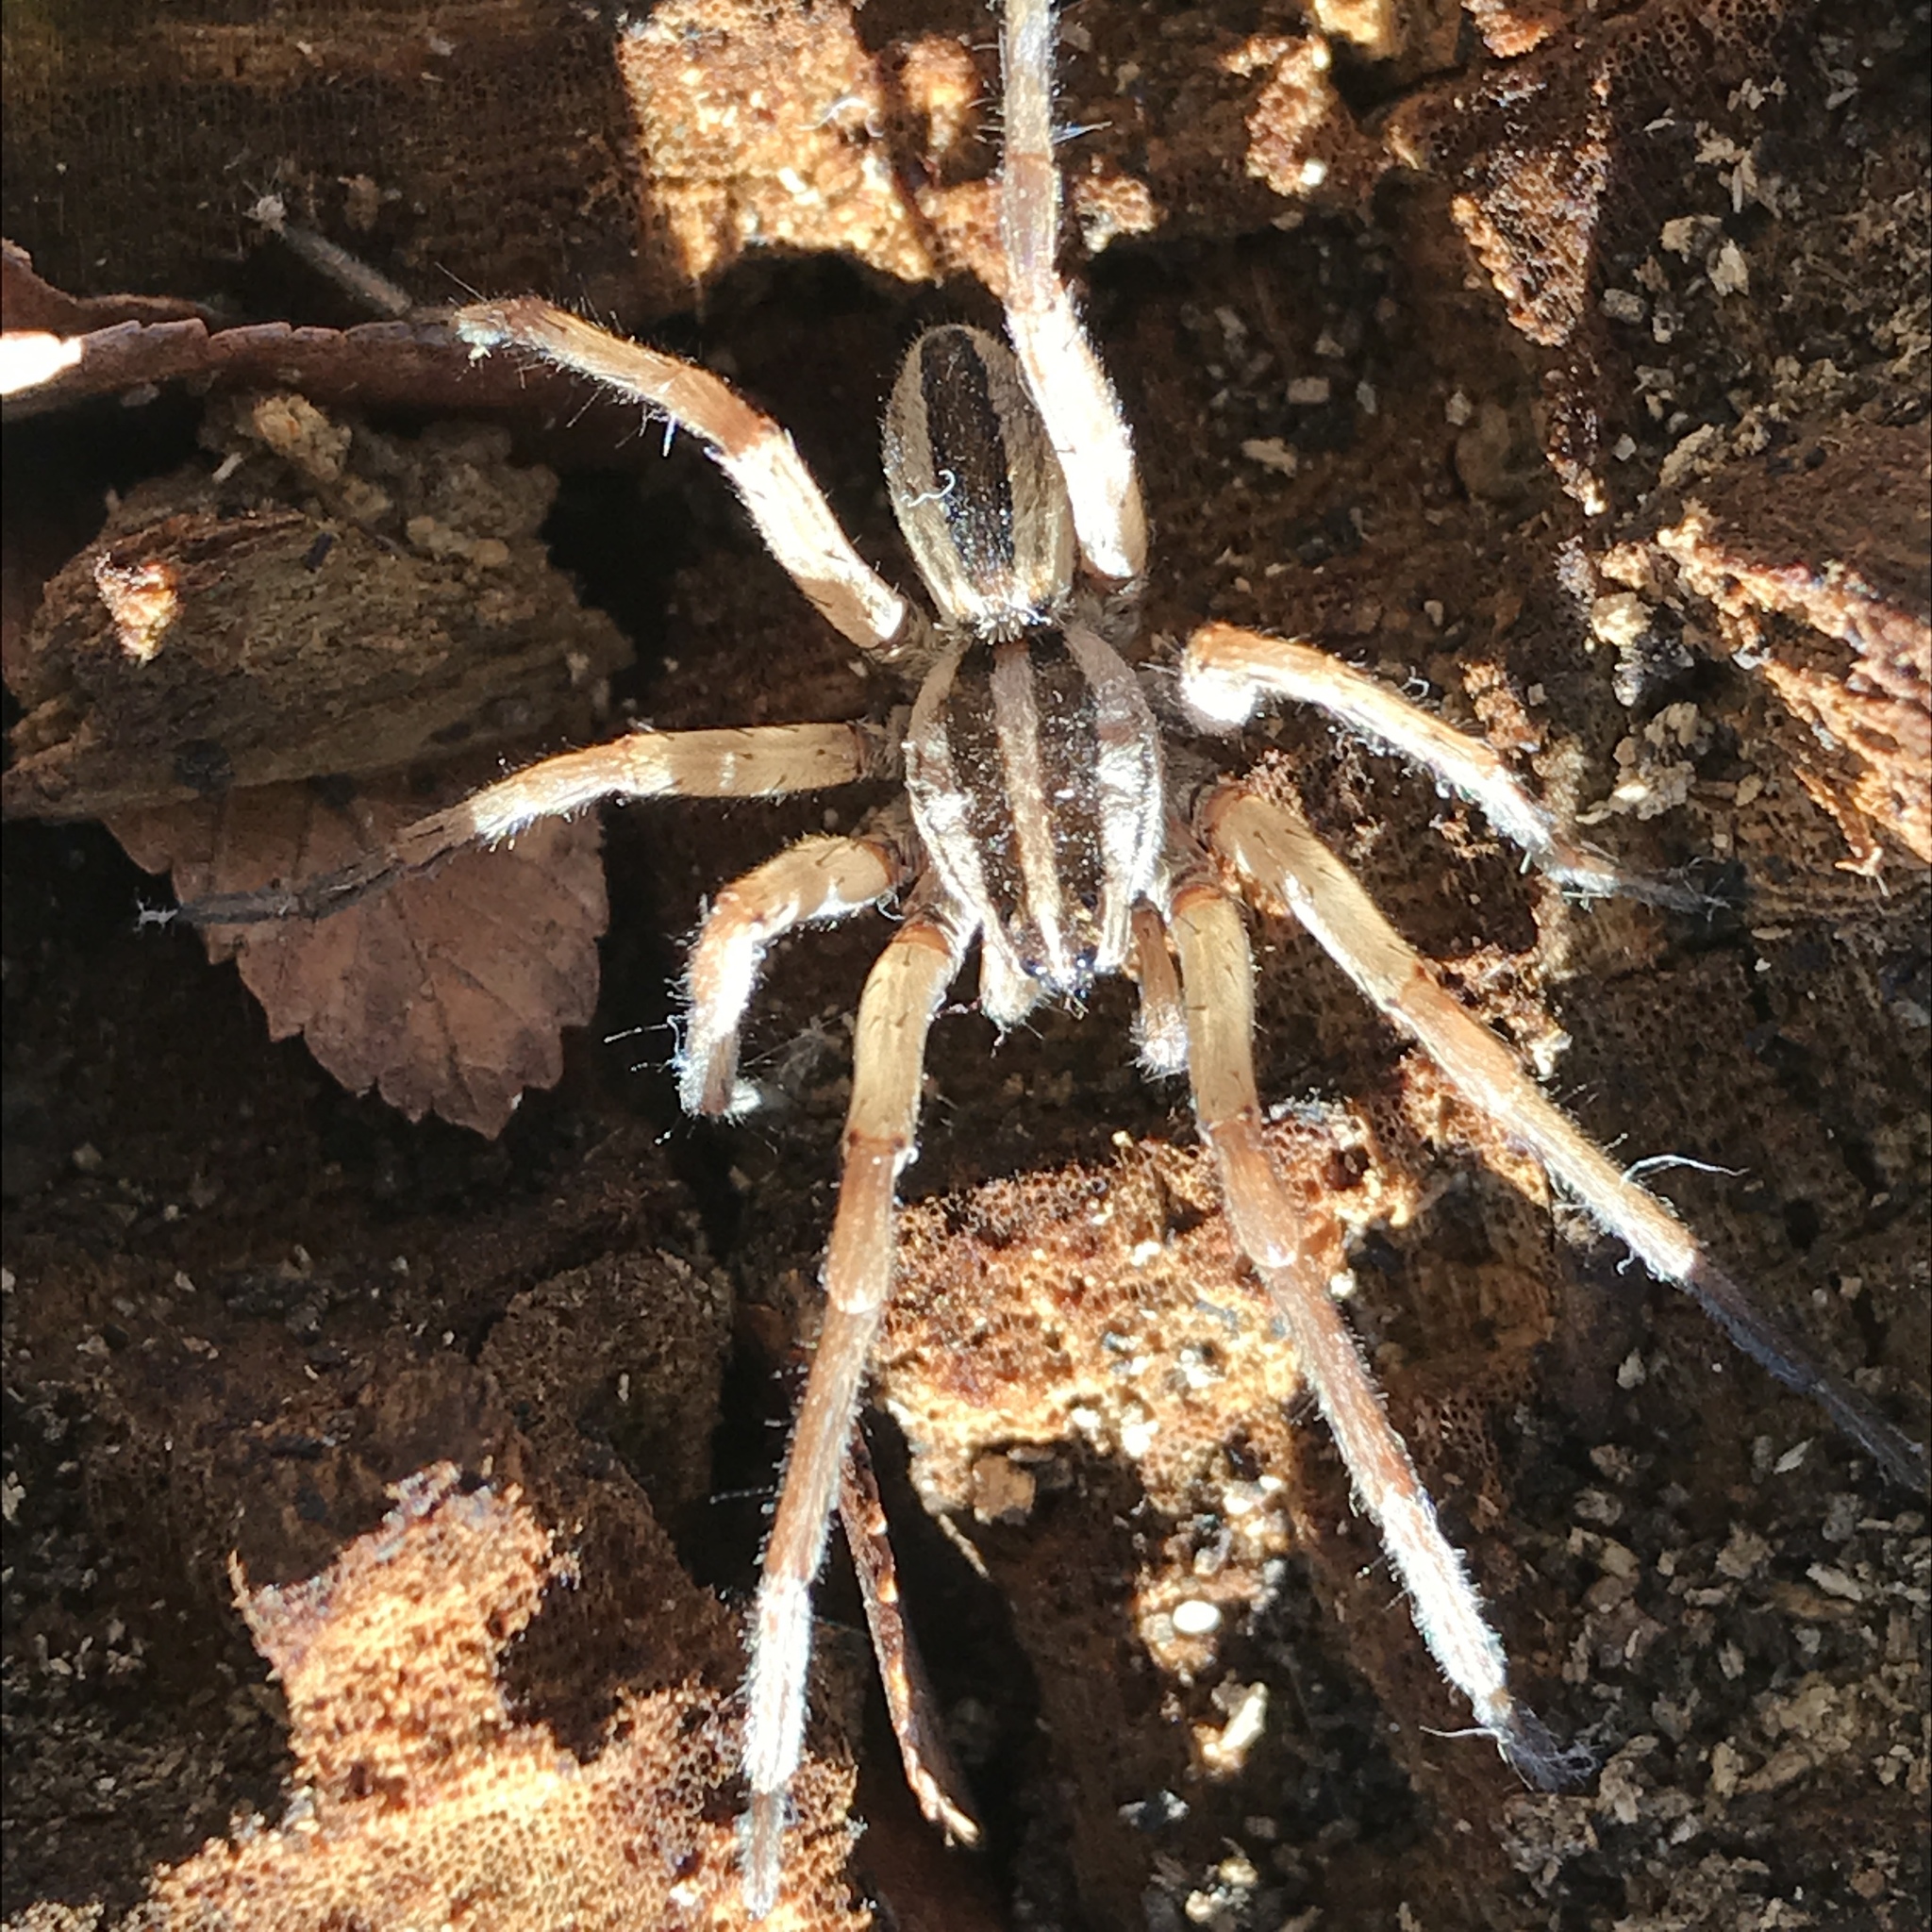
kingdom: Animalia
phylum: Arthropoda
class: Arachnida
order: Araneae
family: Lycosidae
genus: Rabidosa
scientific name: Rabidosa punctulata
